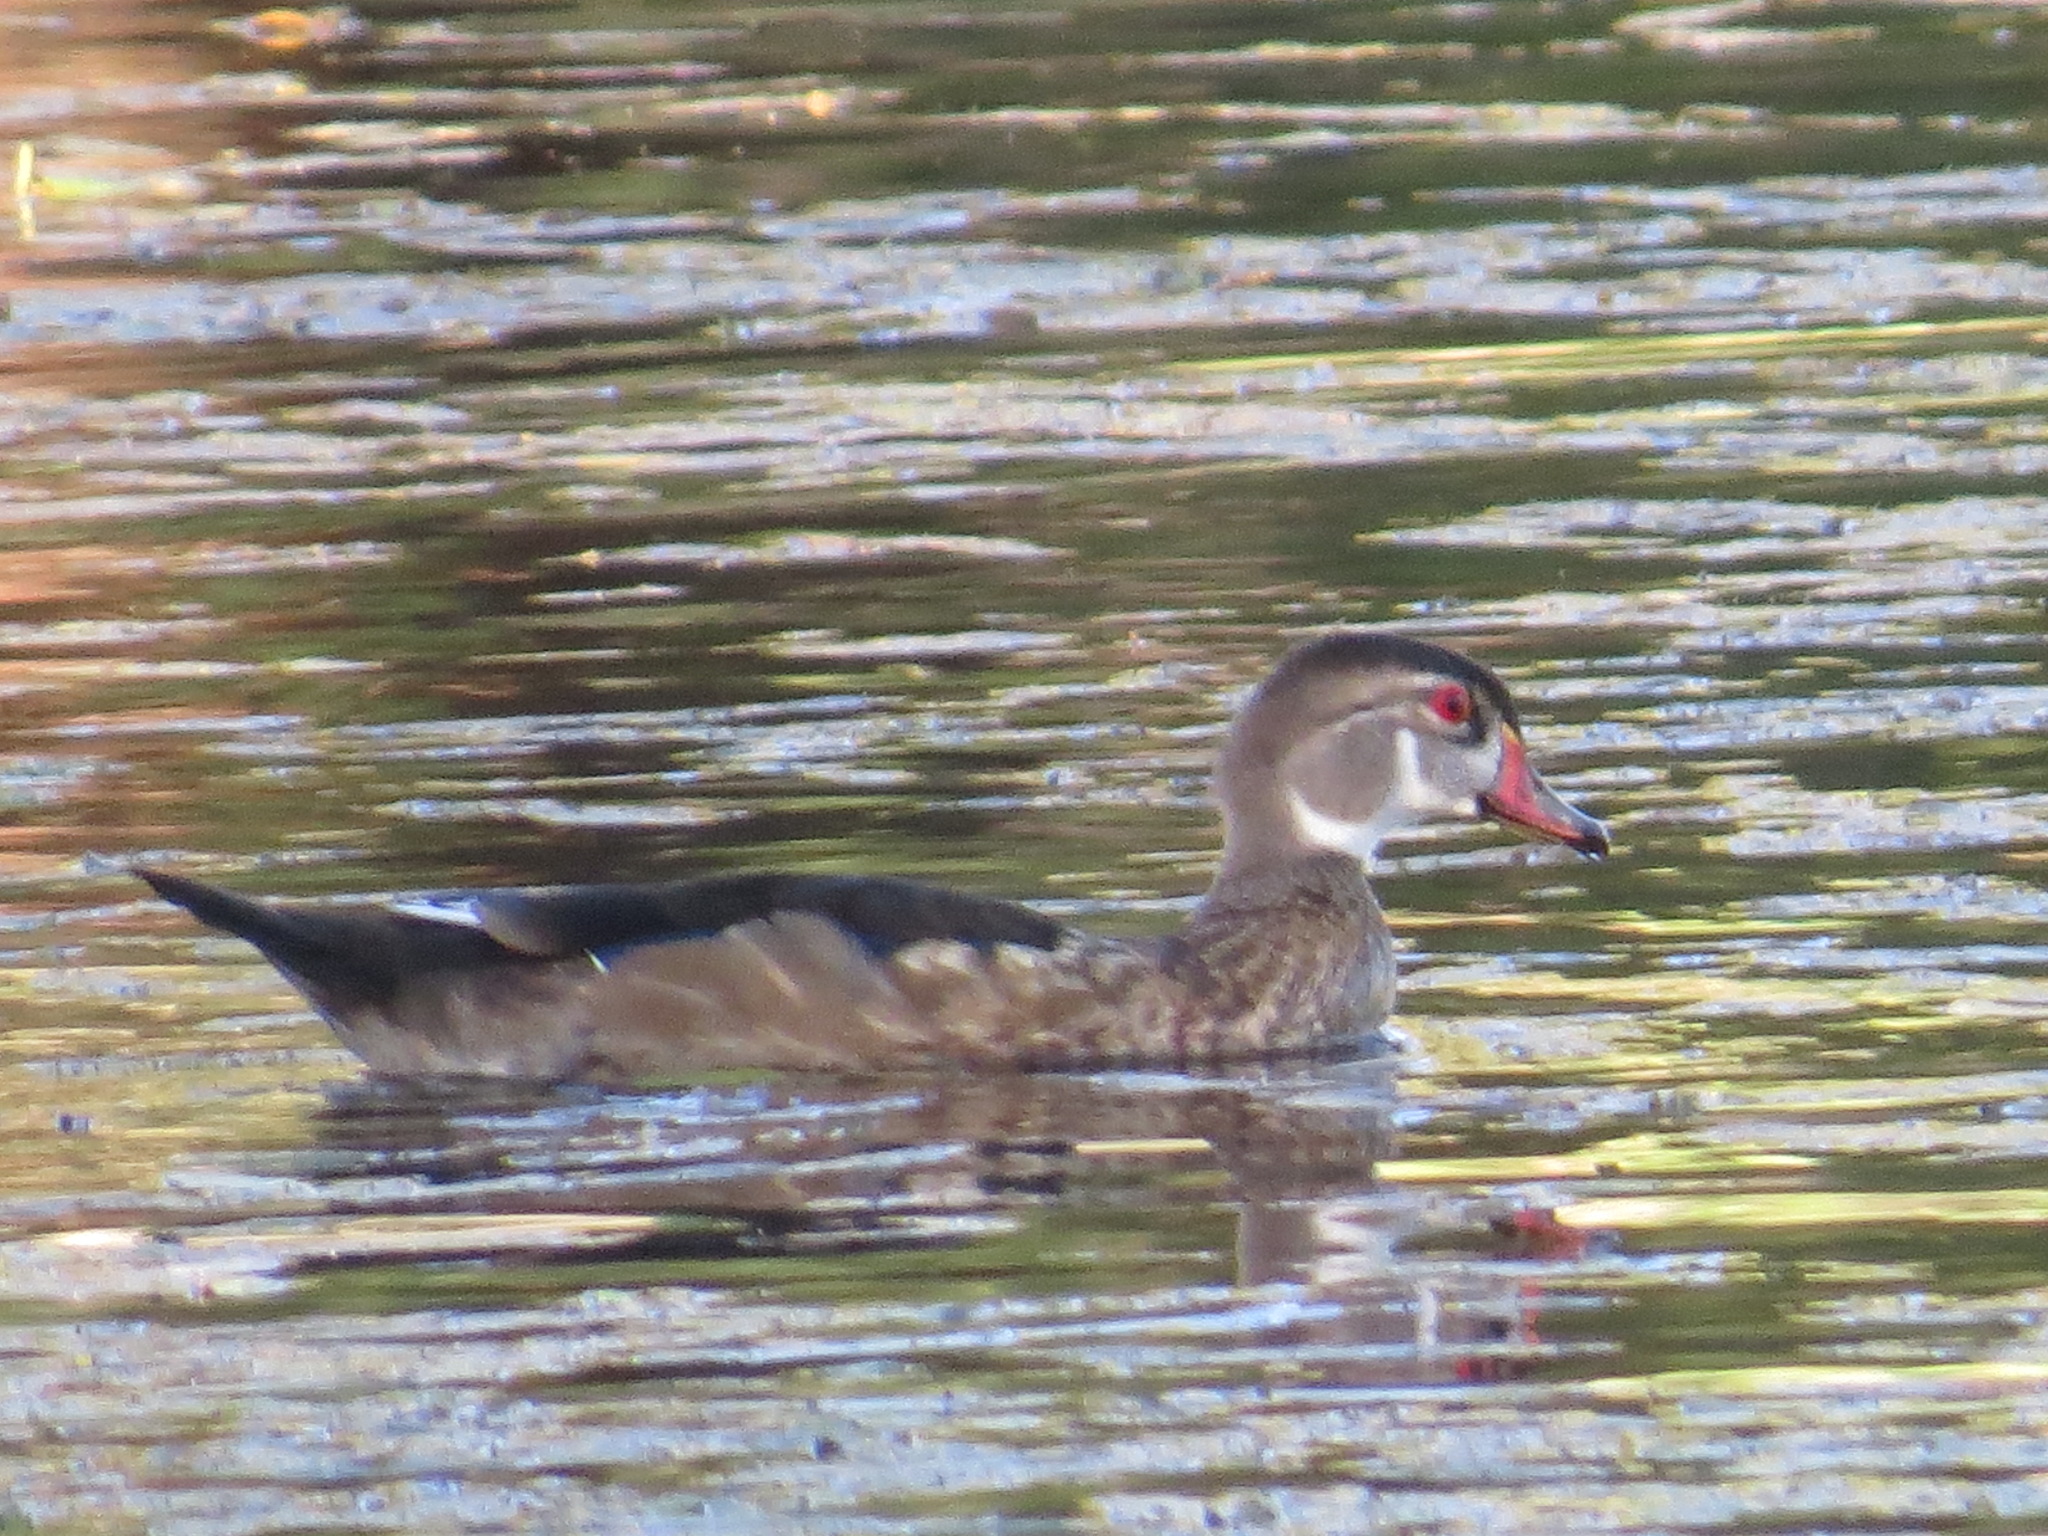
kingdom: Animalia
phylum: Chordata
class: Aves
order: Anseriformes
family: Anatidae
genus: Aix
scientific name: Aix sponsa
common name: Wood duck
